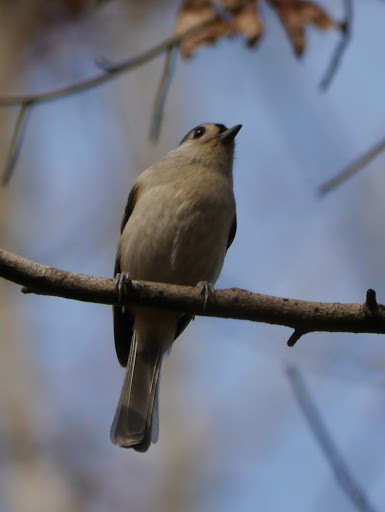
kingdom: Animalia
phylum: Chordata
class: Aves
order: Passeriformes
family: Paridae
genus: Baeolophus
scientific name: Baeolophus bicolor
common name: Tufted titmouse
